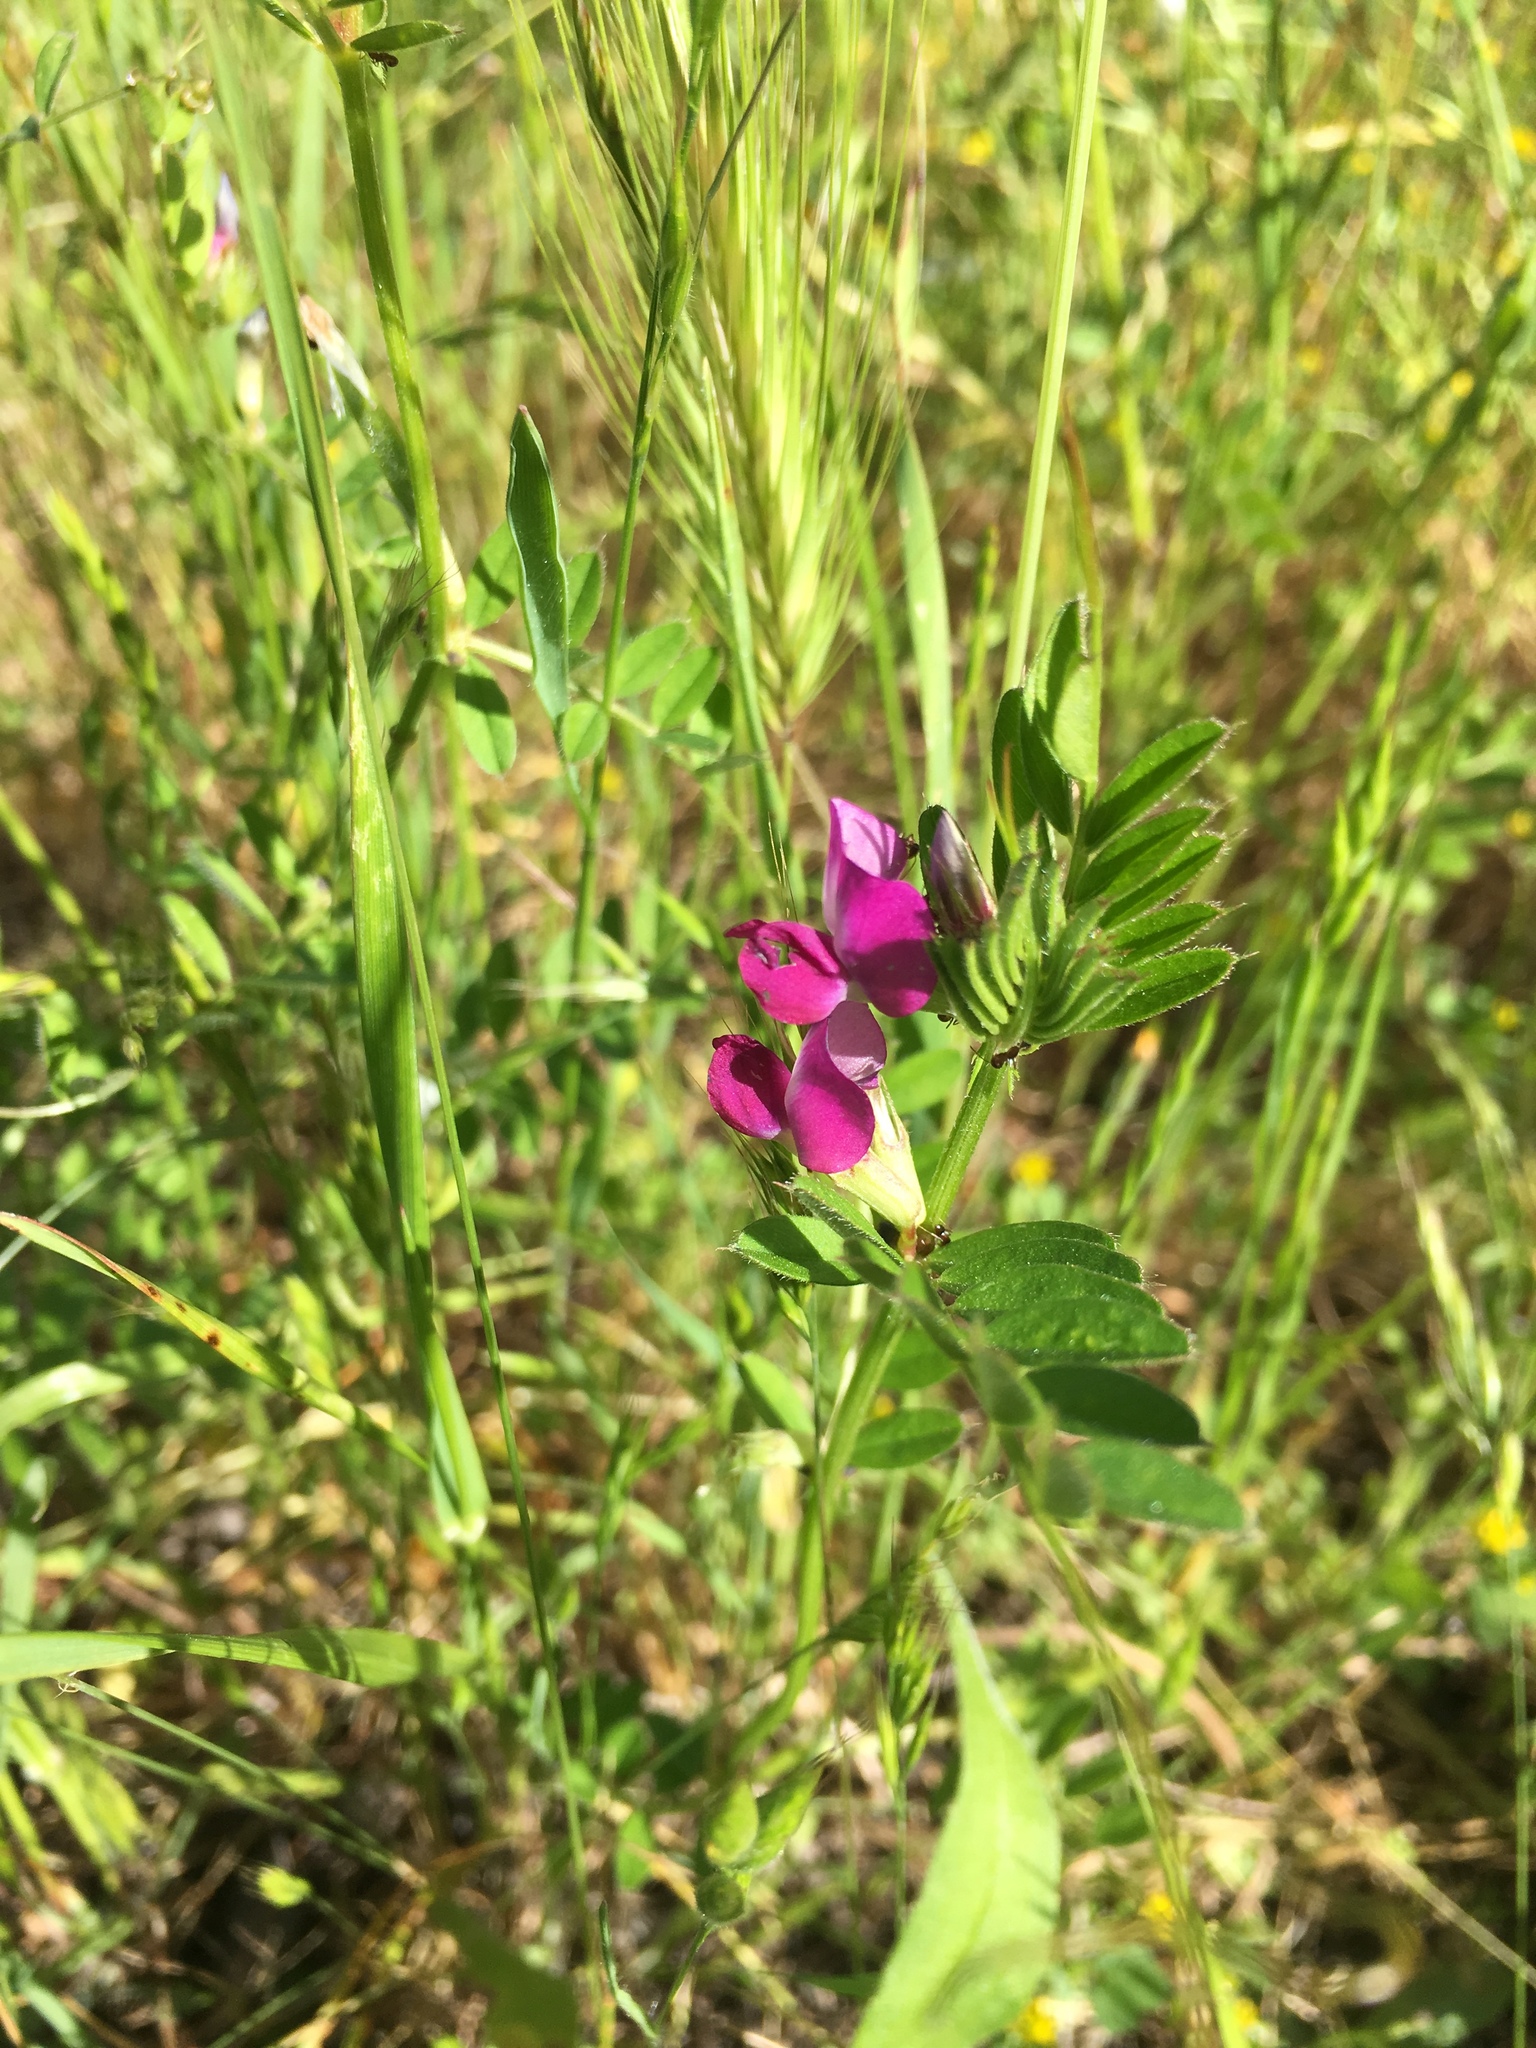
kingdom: Plantae
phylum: Tracheophyta
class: Magnoliopsida
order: Fabales
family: Fabaceae
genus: Vicia
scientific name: Vicia sativa
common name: Garden vetch
